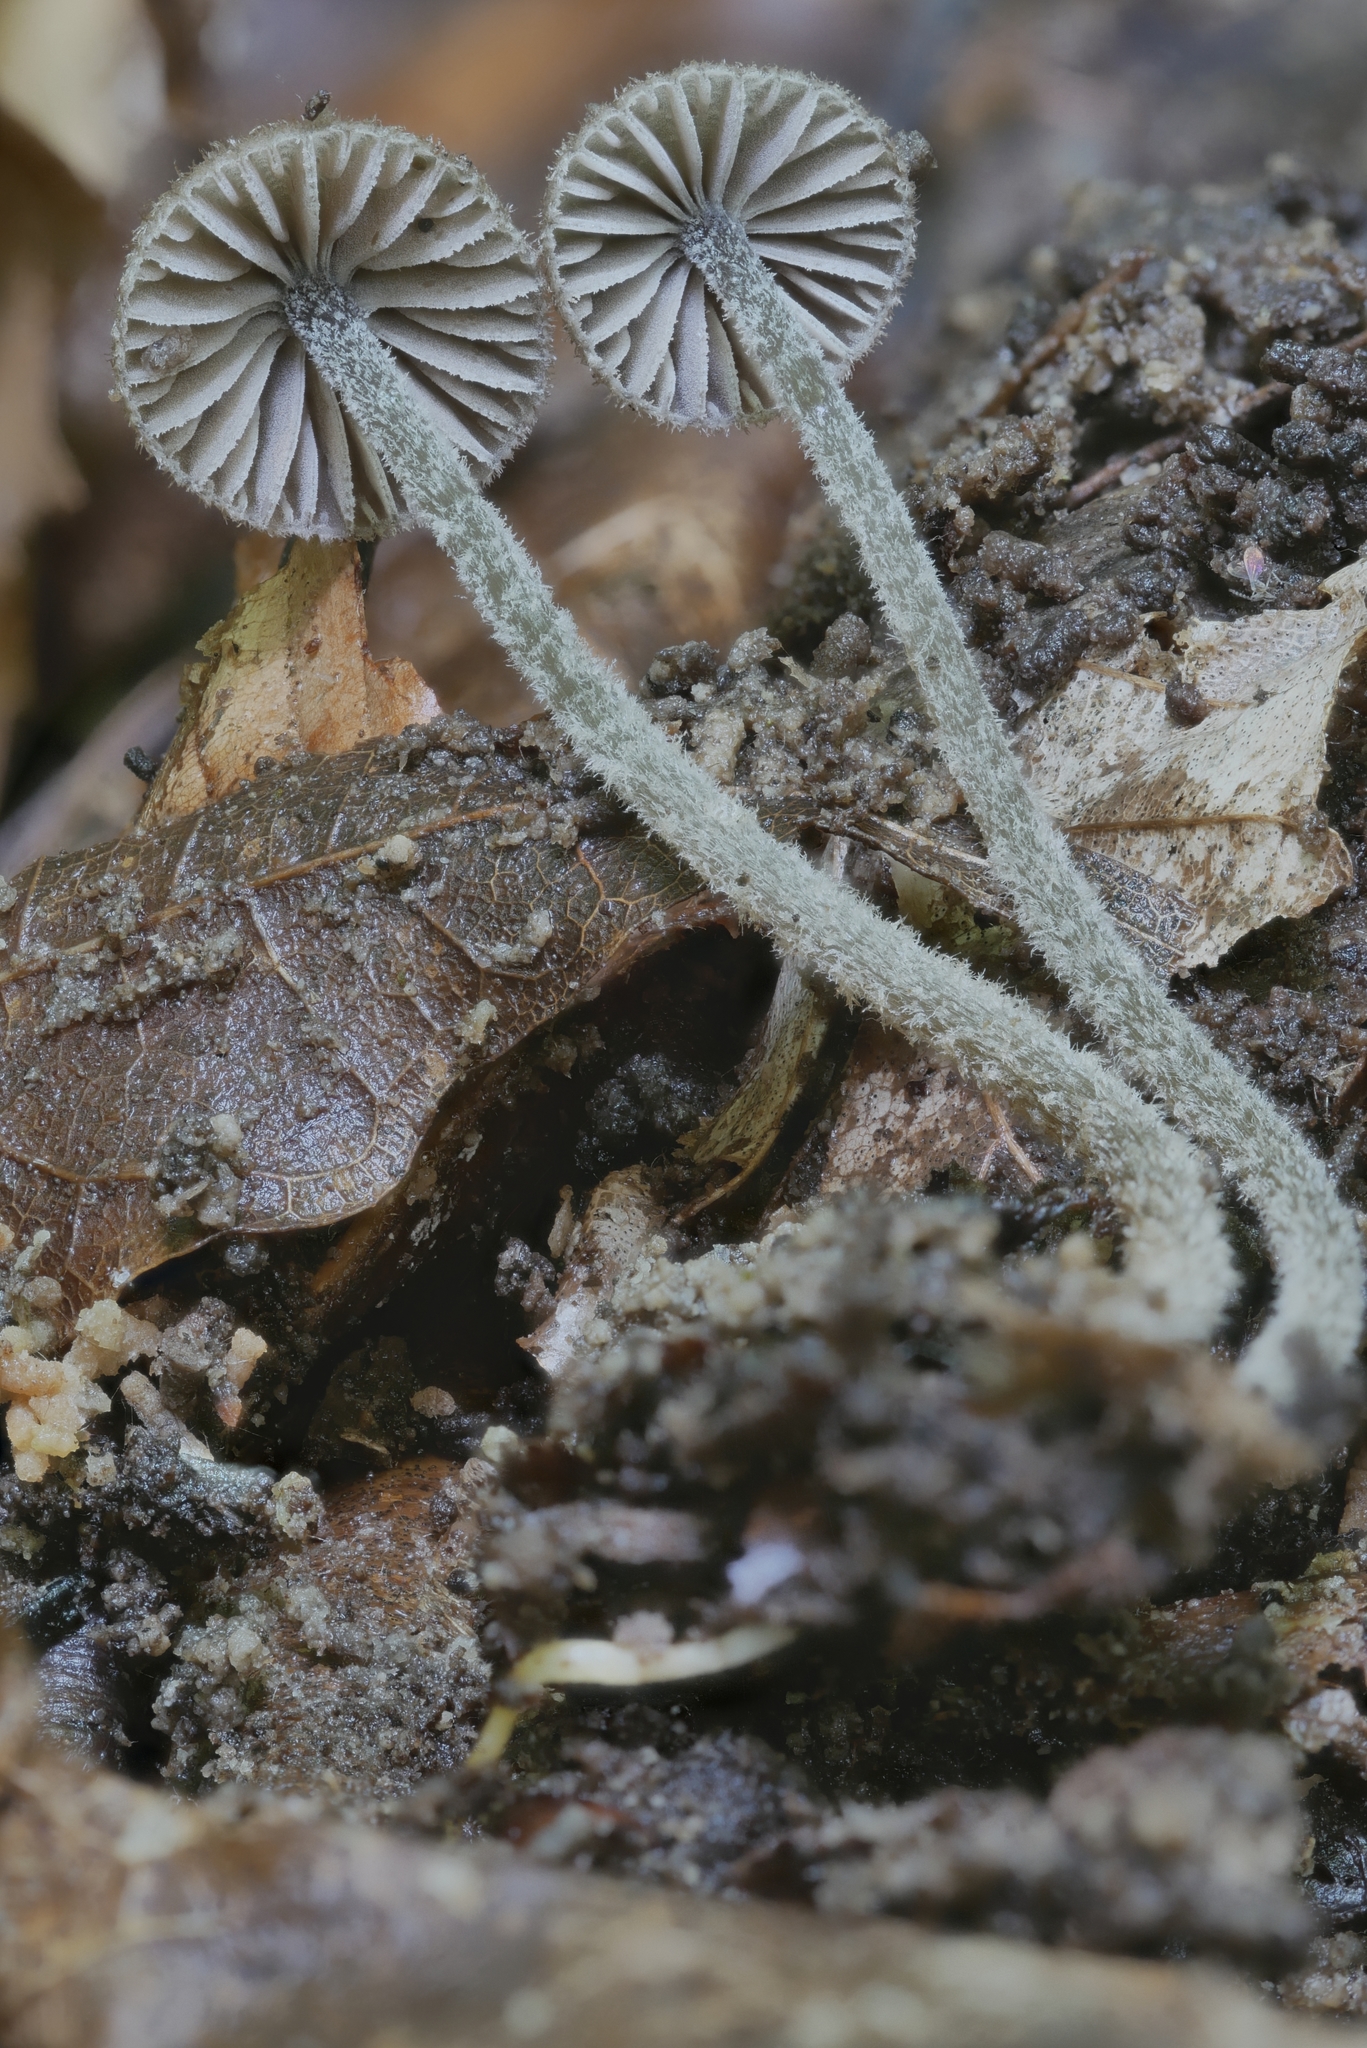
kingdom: Fungi
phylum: Basidiomycota
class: Agaricomycetes
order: Agaricales
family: Entolomataceae
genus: Entoloma
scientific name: Entoloma dysthales
